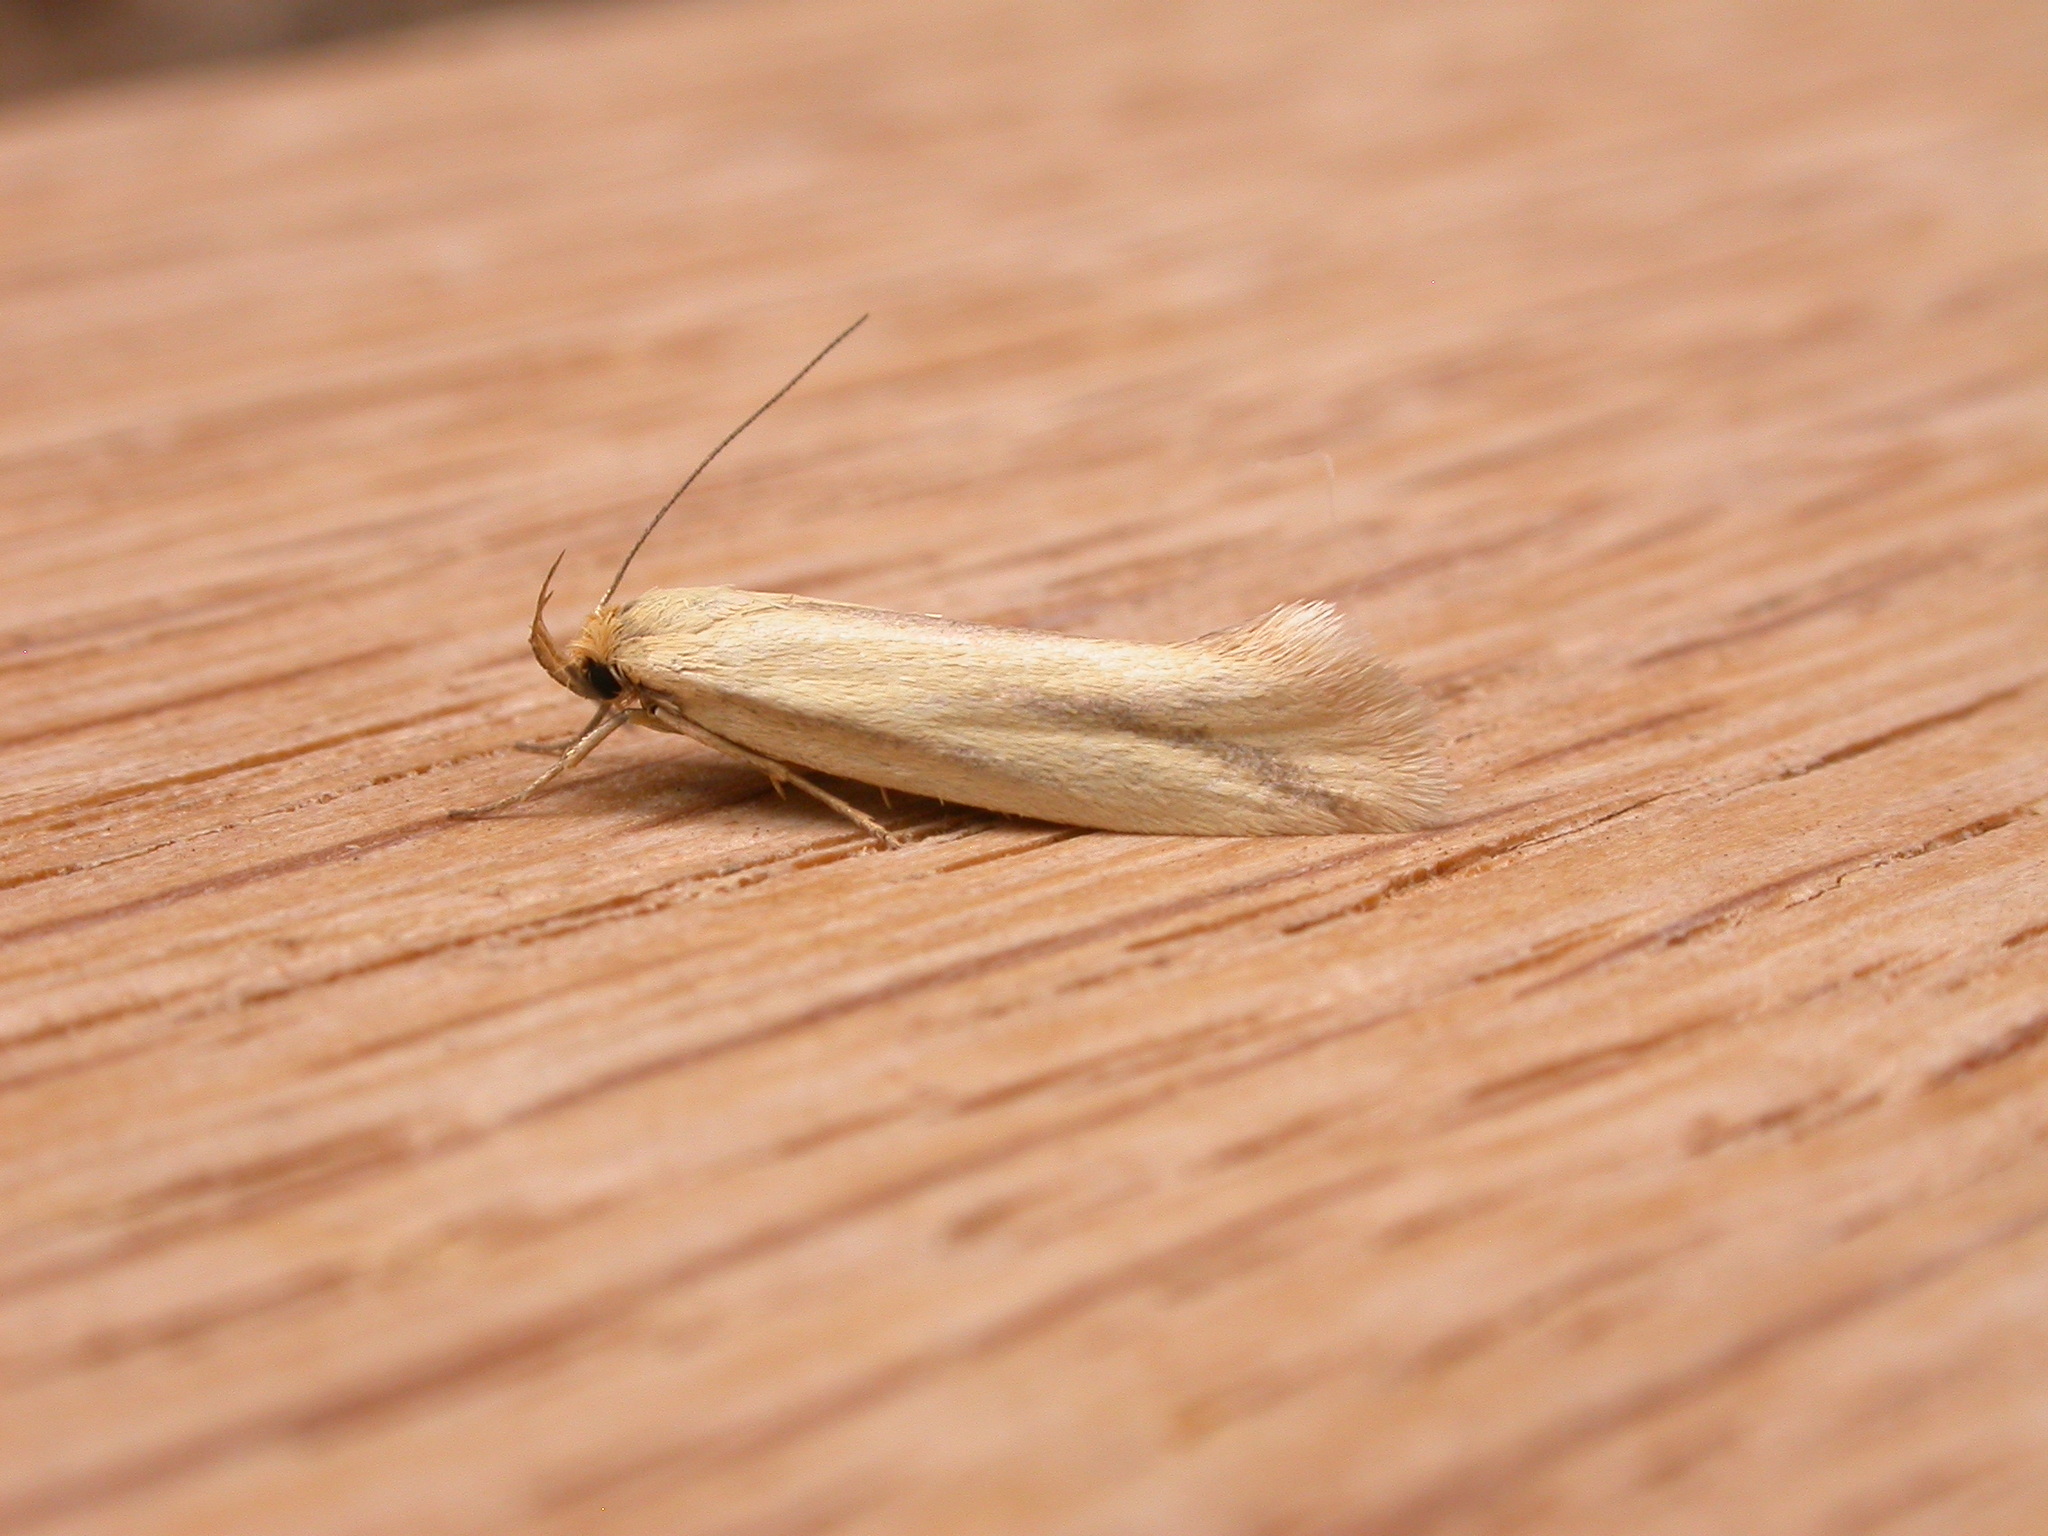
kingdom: Animalia
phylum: Arthropoda
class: Insecta
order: Lepidoptera
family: Oecophoridae
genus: Corynotricha
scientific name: Corynotricha antipodella
